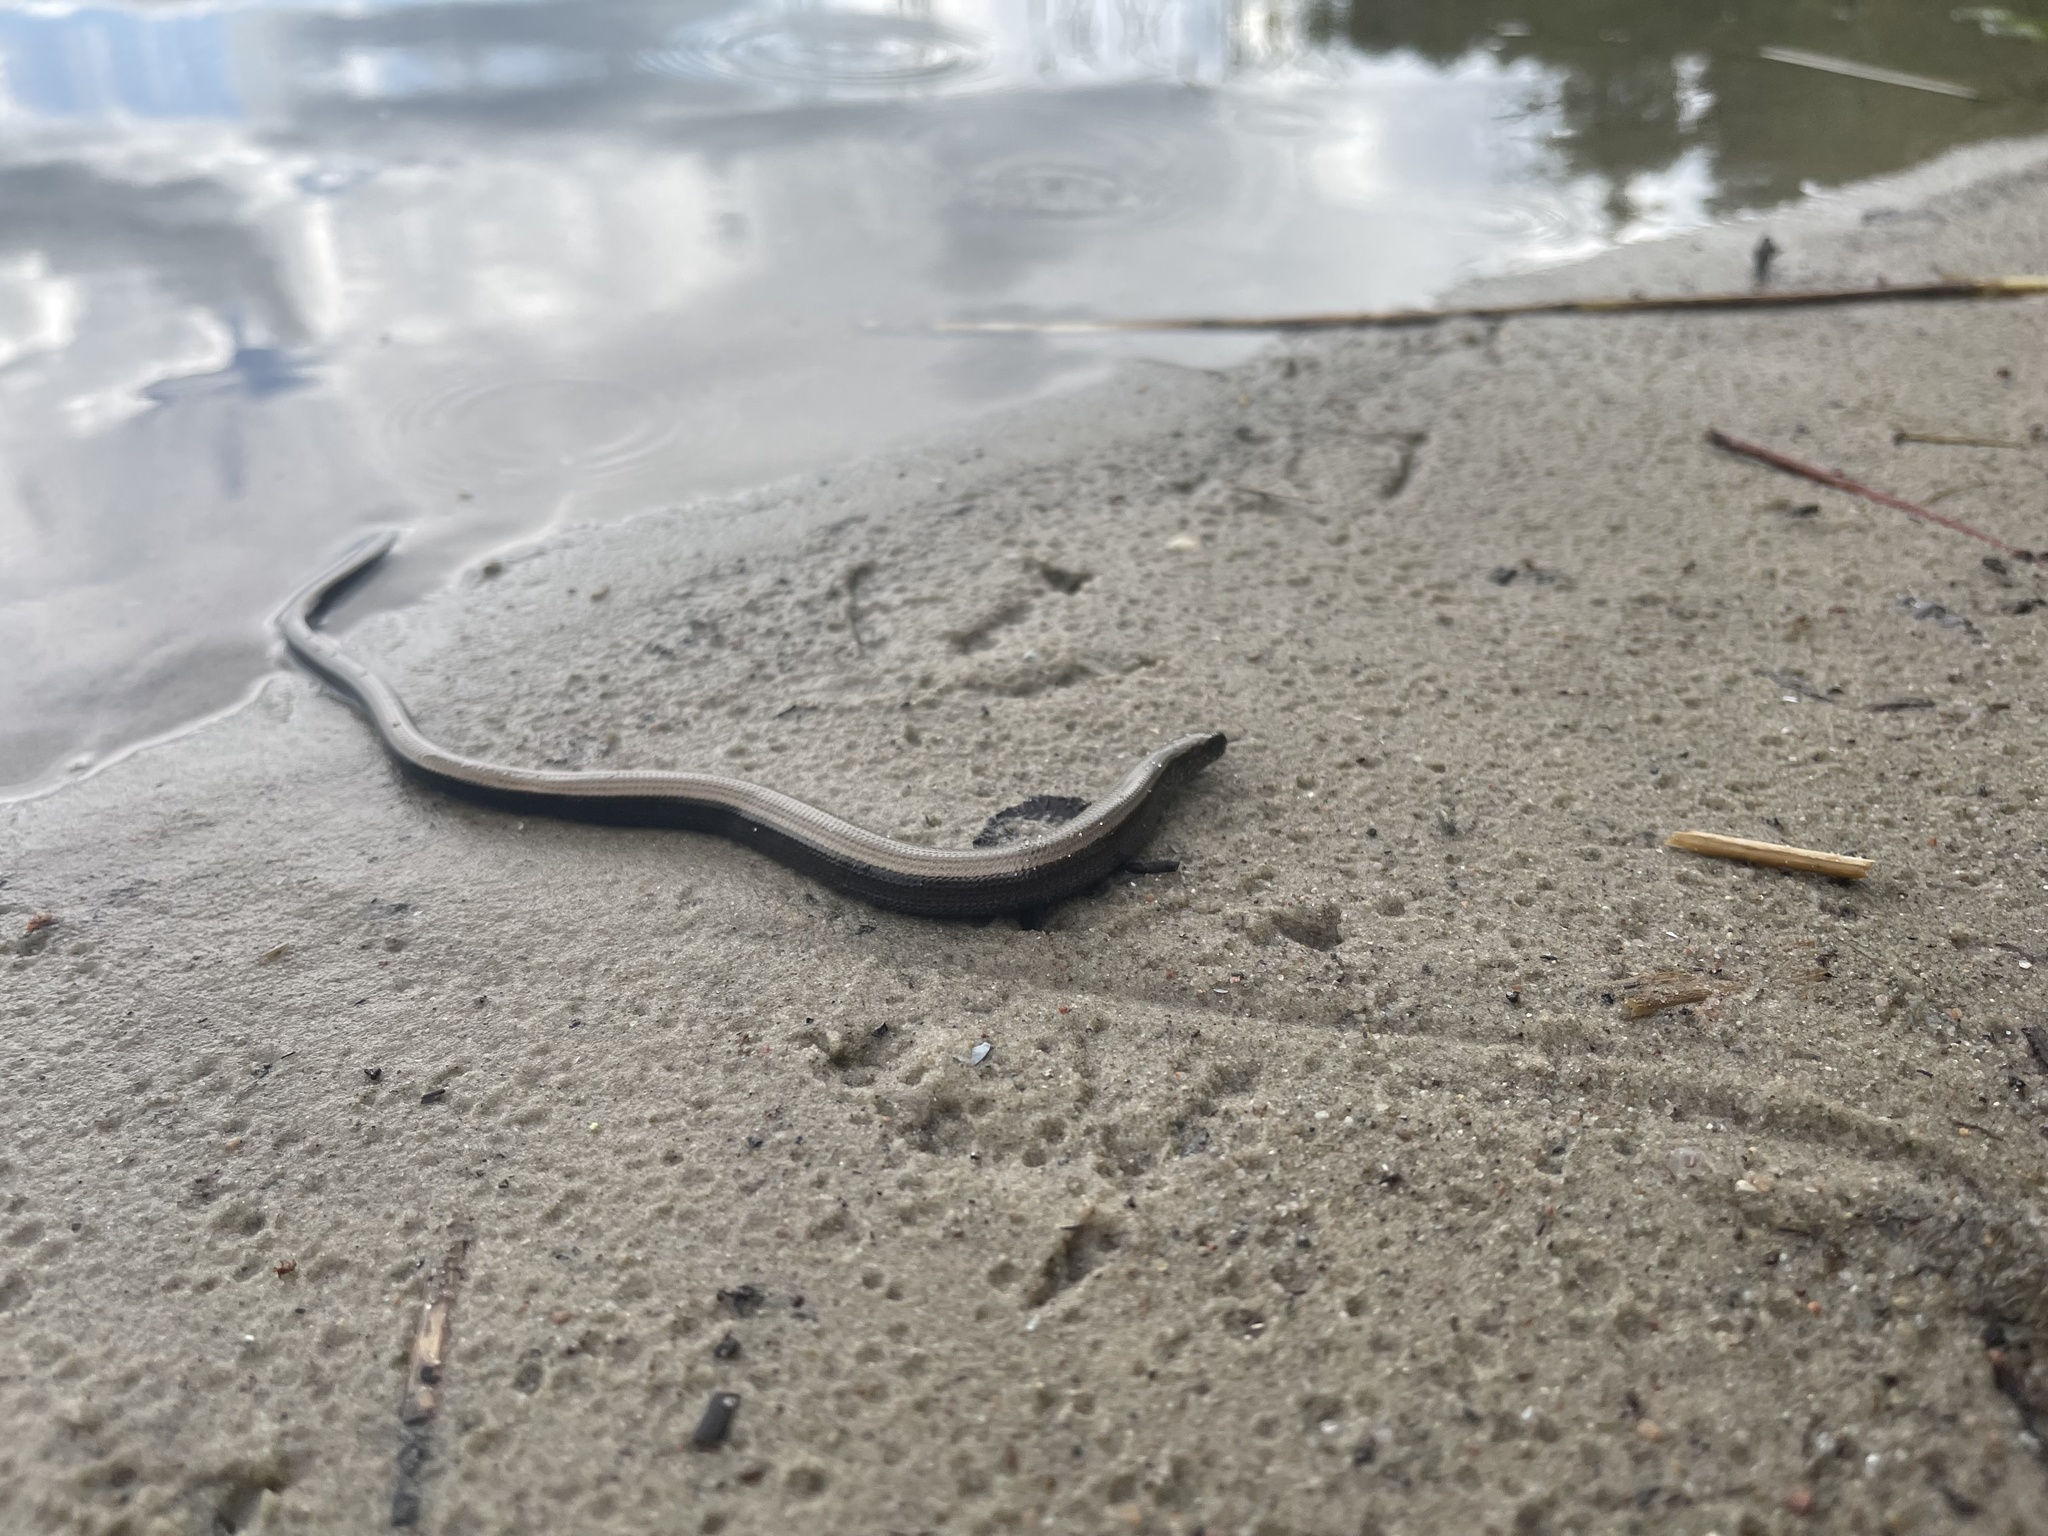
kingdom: Animalia
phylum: Chordata
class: Squamata
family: Anguidae
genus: Anguis
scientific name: Anguis fragilis
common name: Slow worm
